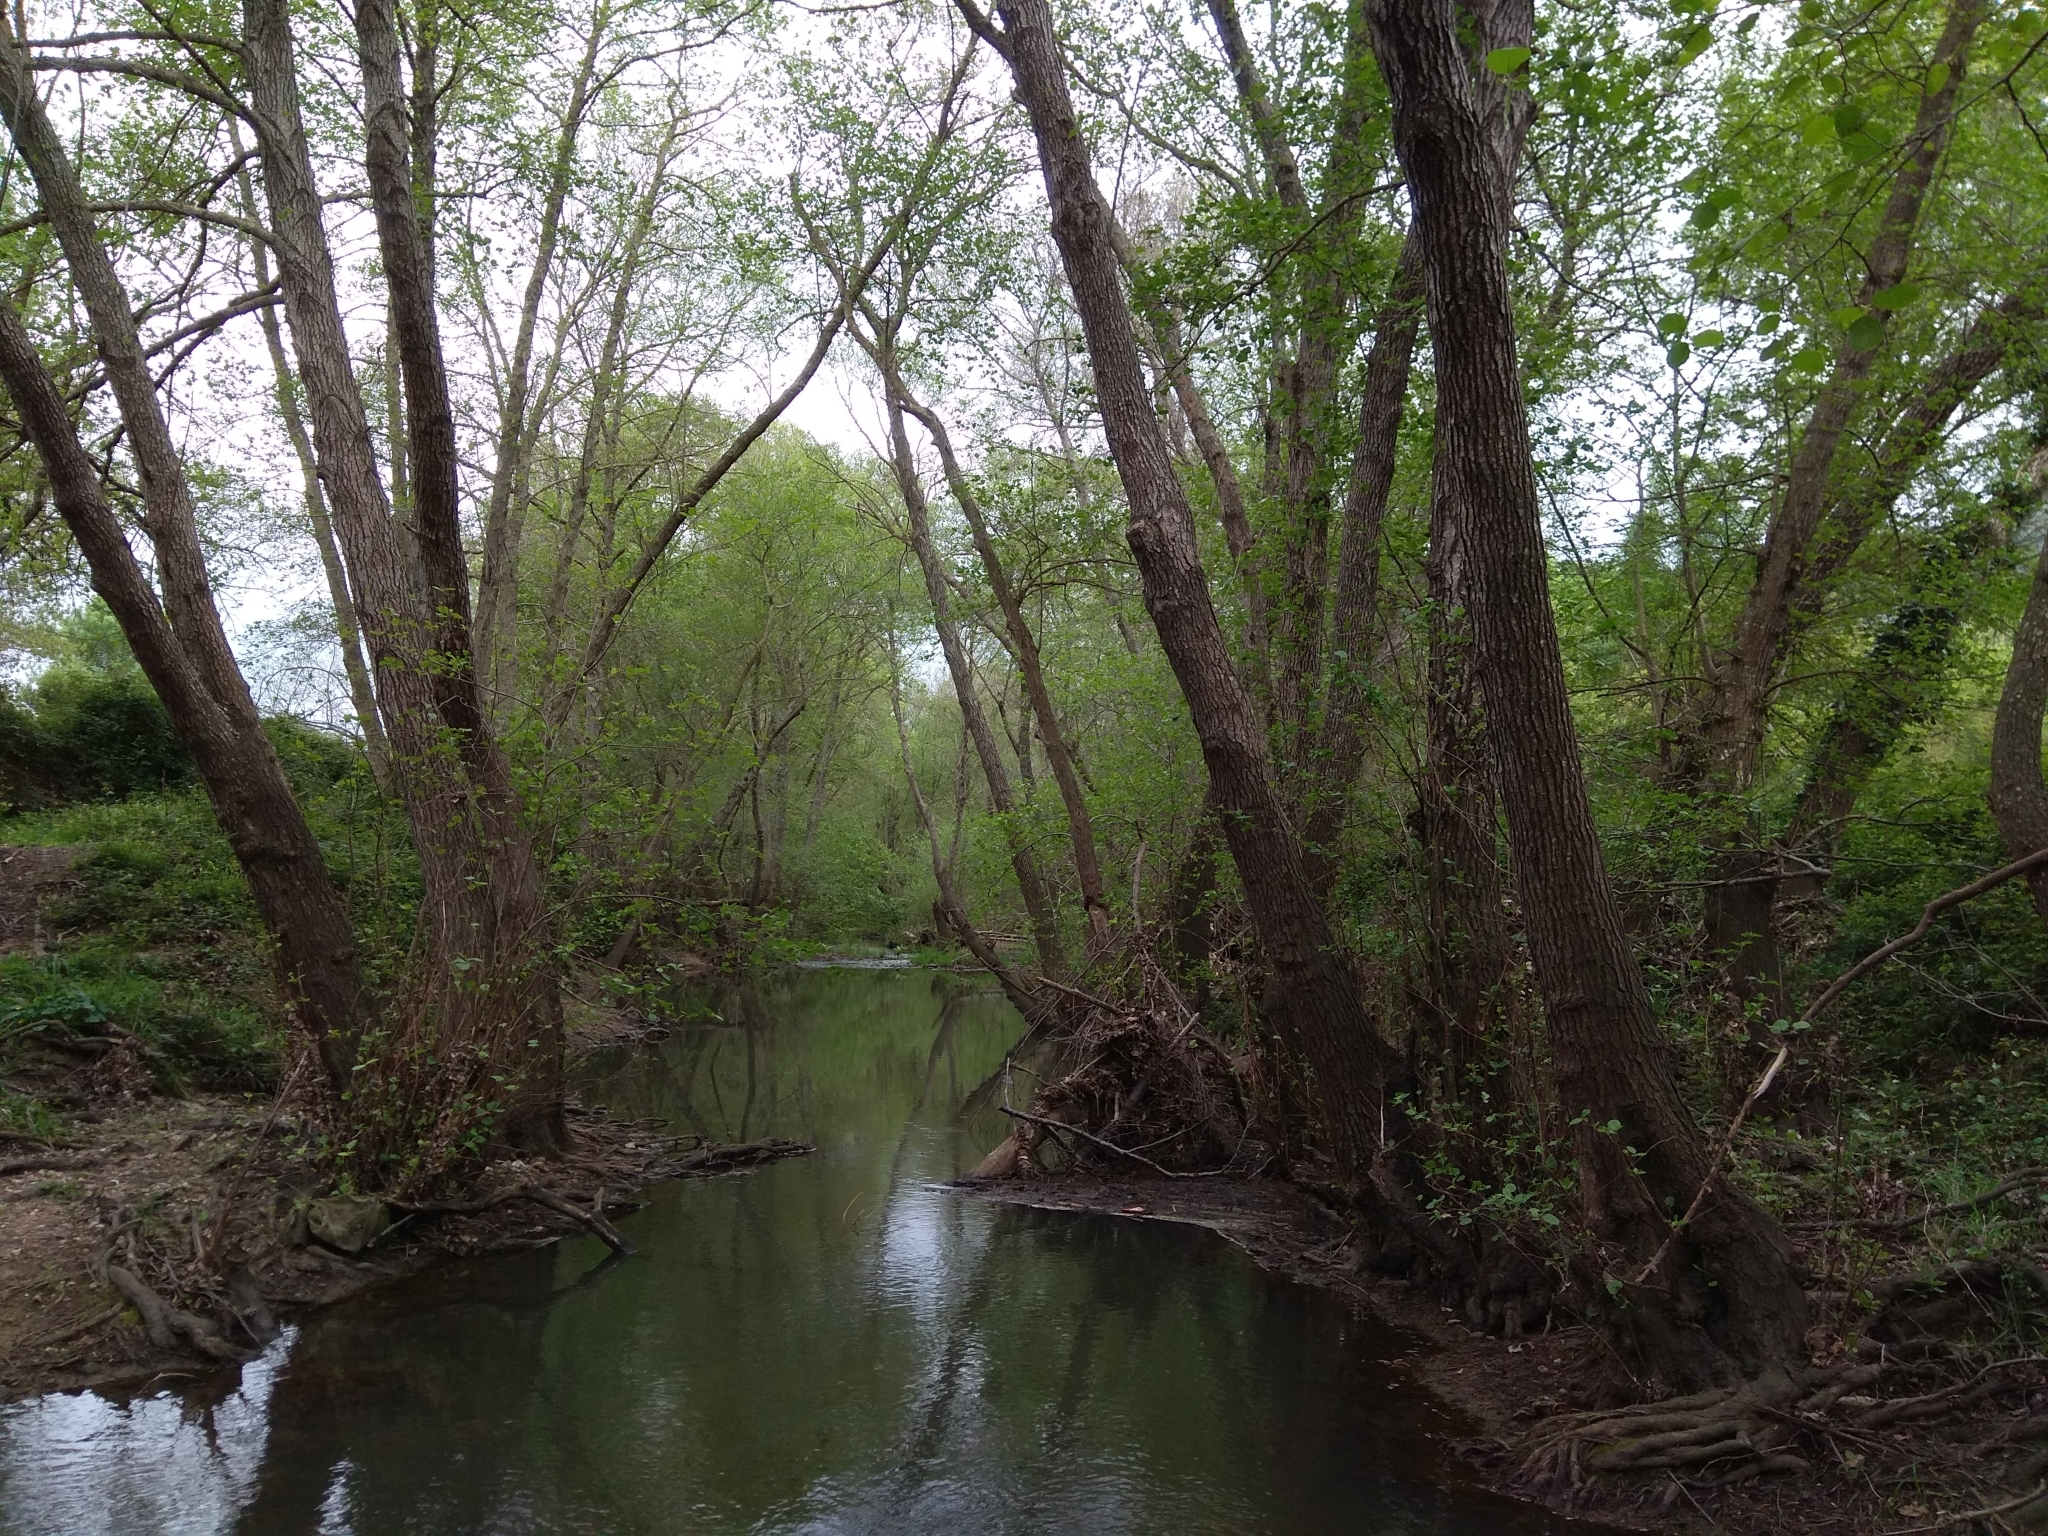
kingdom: Plantae
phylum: Tracheophyta
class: Magnoliopsida
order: Fagales
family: Betulaceae
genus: Alnus
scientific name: Alnus lusitanica
